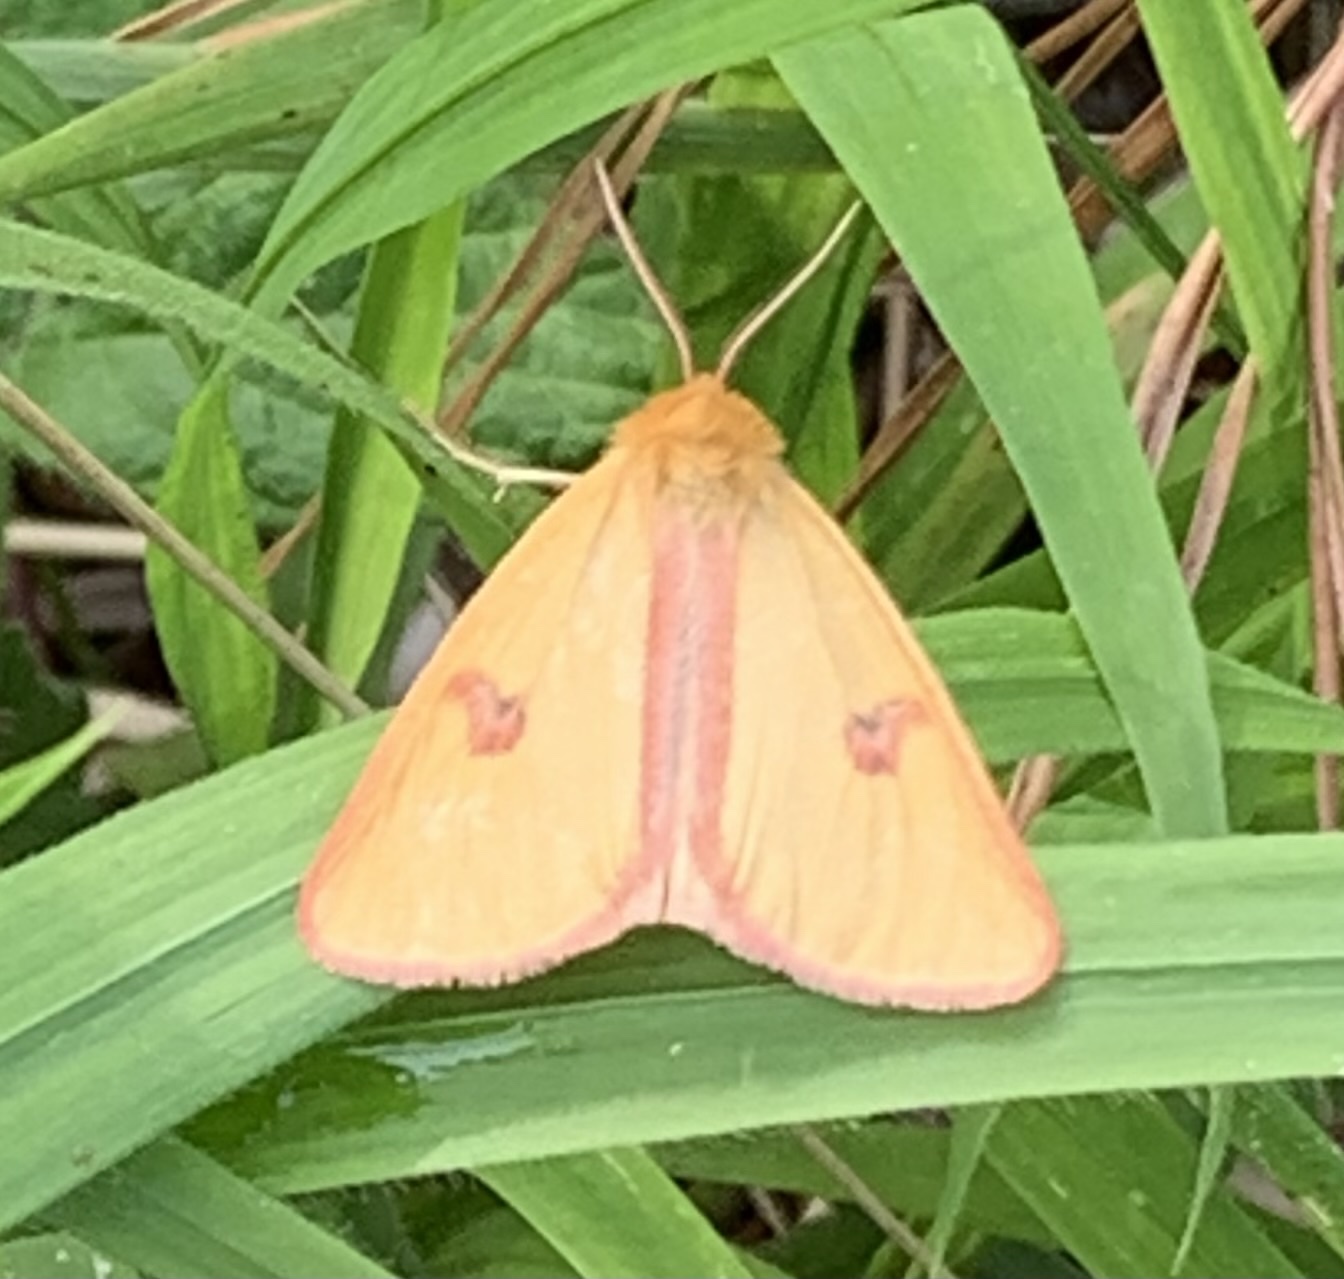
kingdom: Animalia
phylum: Arthropoda
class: Insecta
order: Lepidoptera
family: Erebidae
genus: Diacrisia
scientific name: Diacrisia sannio
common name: Clouded buff
